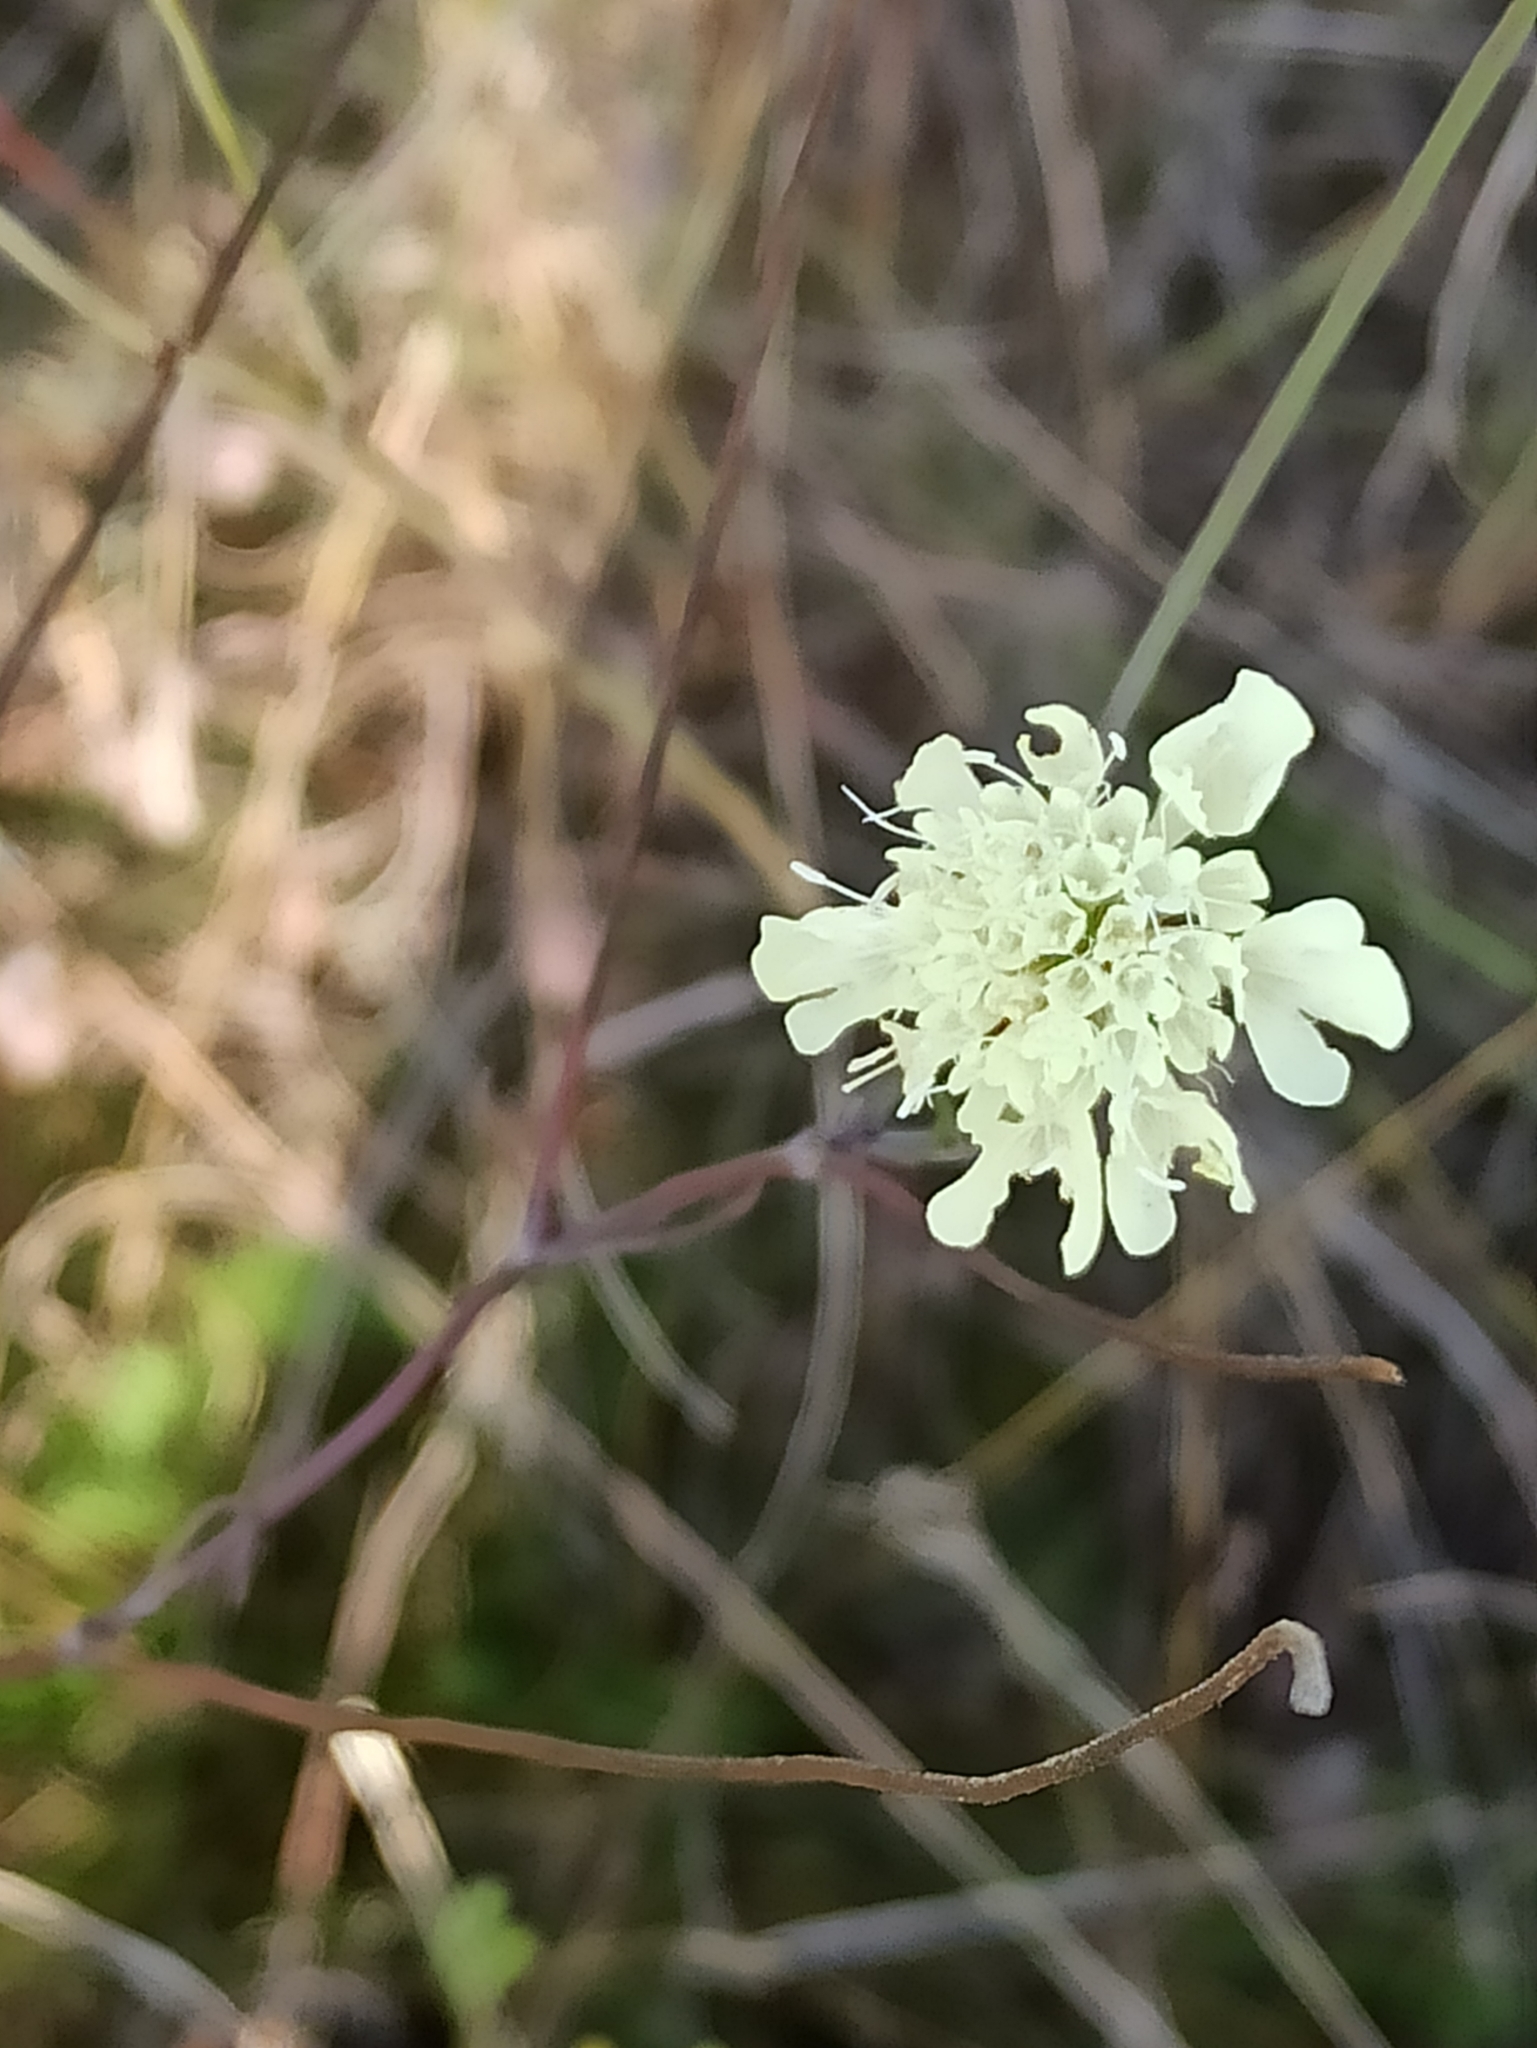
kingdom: Plantae
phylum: Tracheophyta
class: Magnoliopsida
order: Dipsacales
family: Caprifoliaceae
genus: Scabiosa
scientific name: Scabiosa ochroleuca
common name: Cream pincushions
